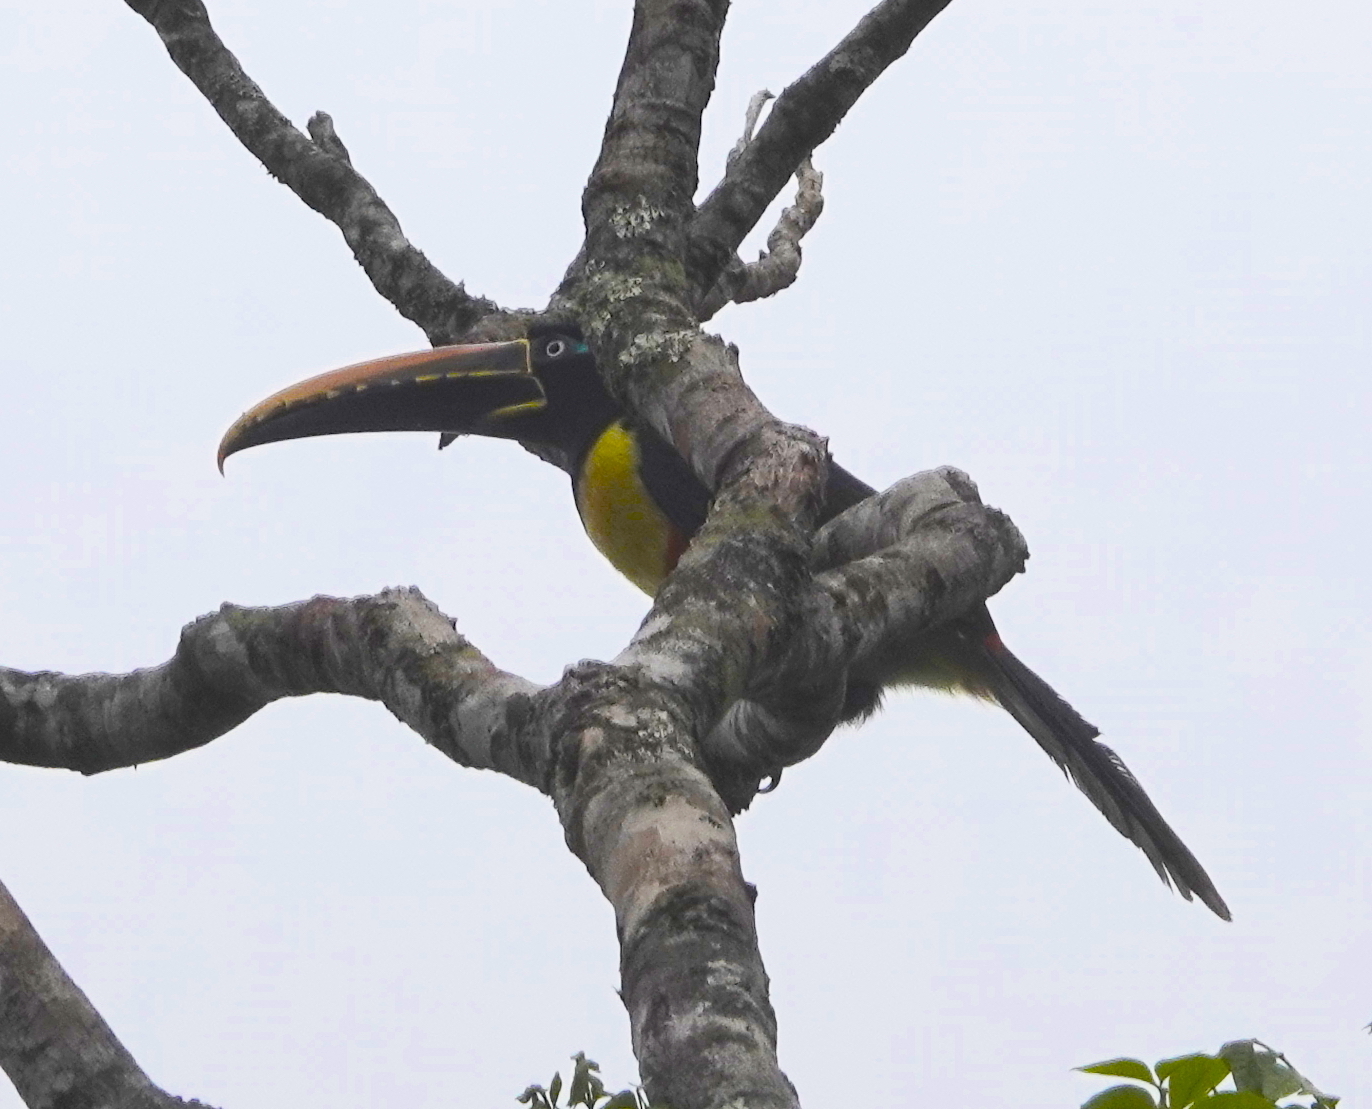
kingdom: Animalia
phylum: Chordata
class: Aves
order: Piciformes
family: Ramphastidae
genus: Pteroglossus
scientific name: Pteroglossus castanotis
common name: Chestnut-eared aracari
